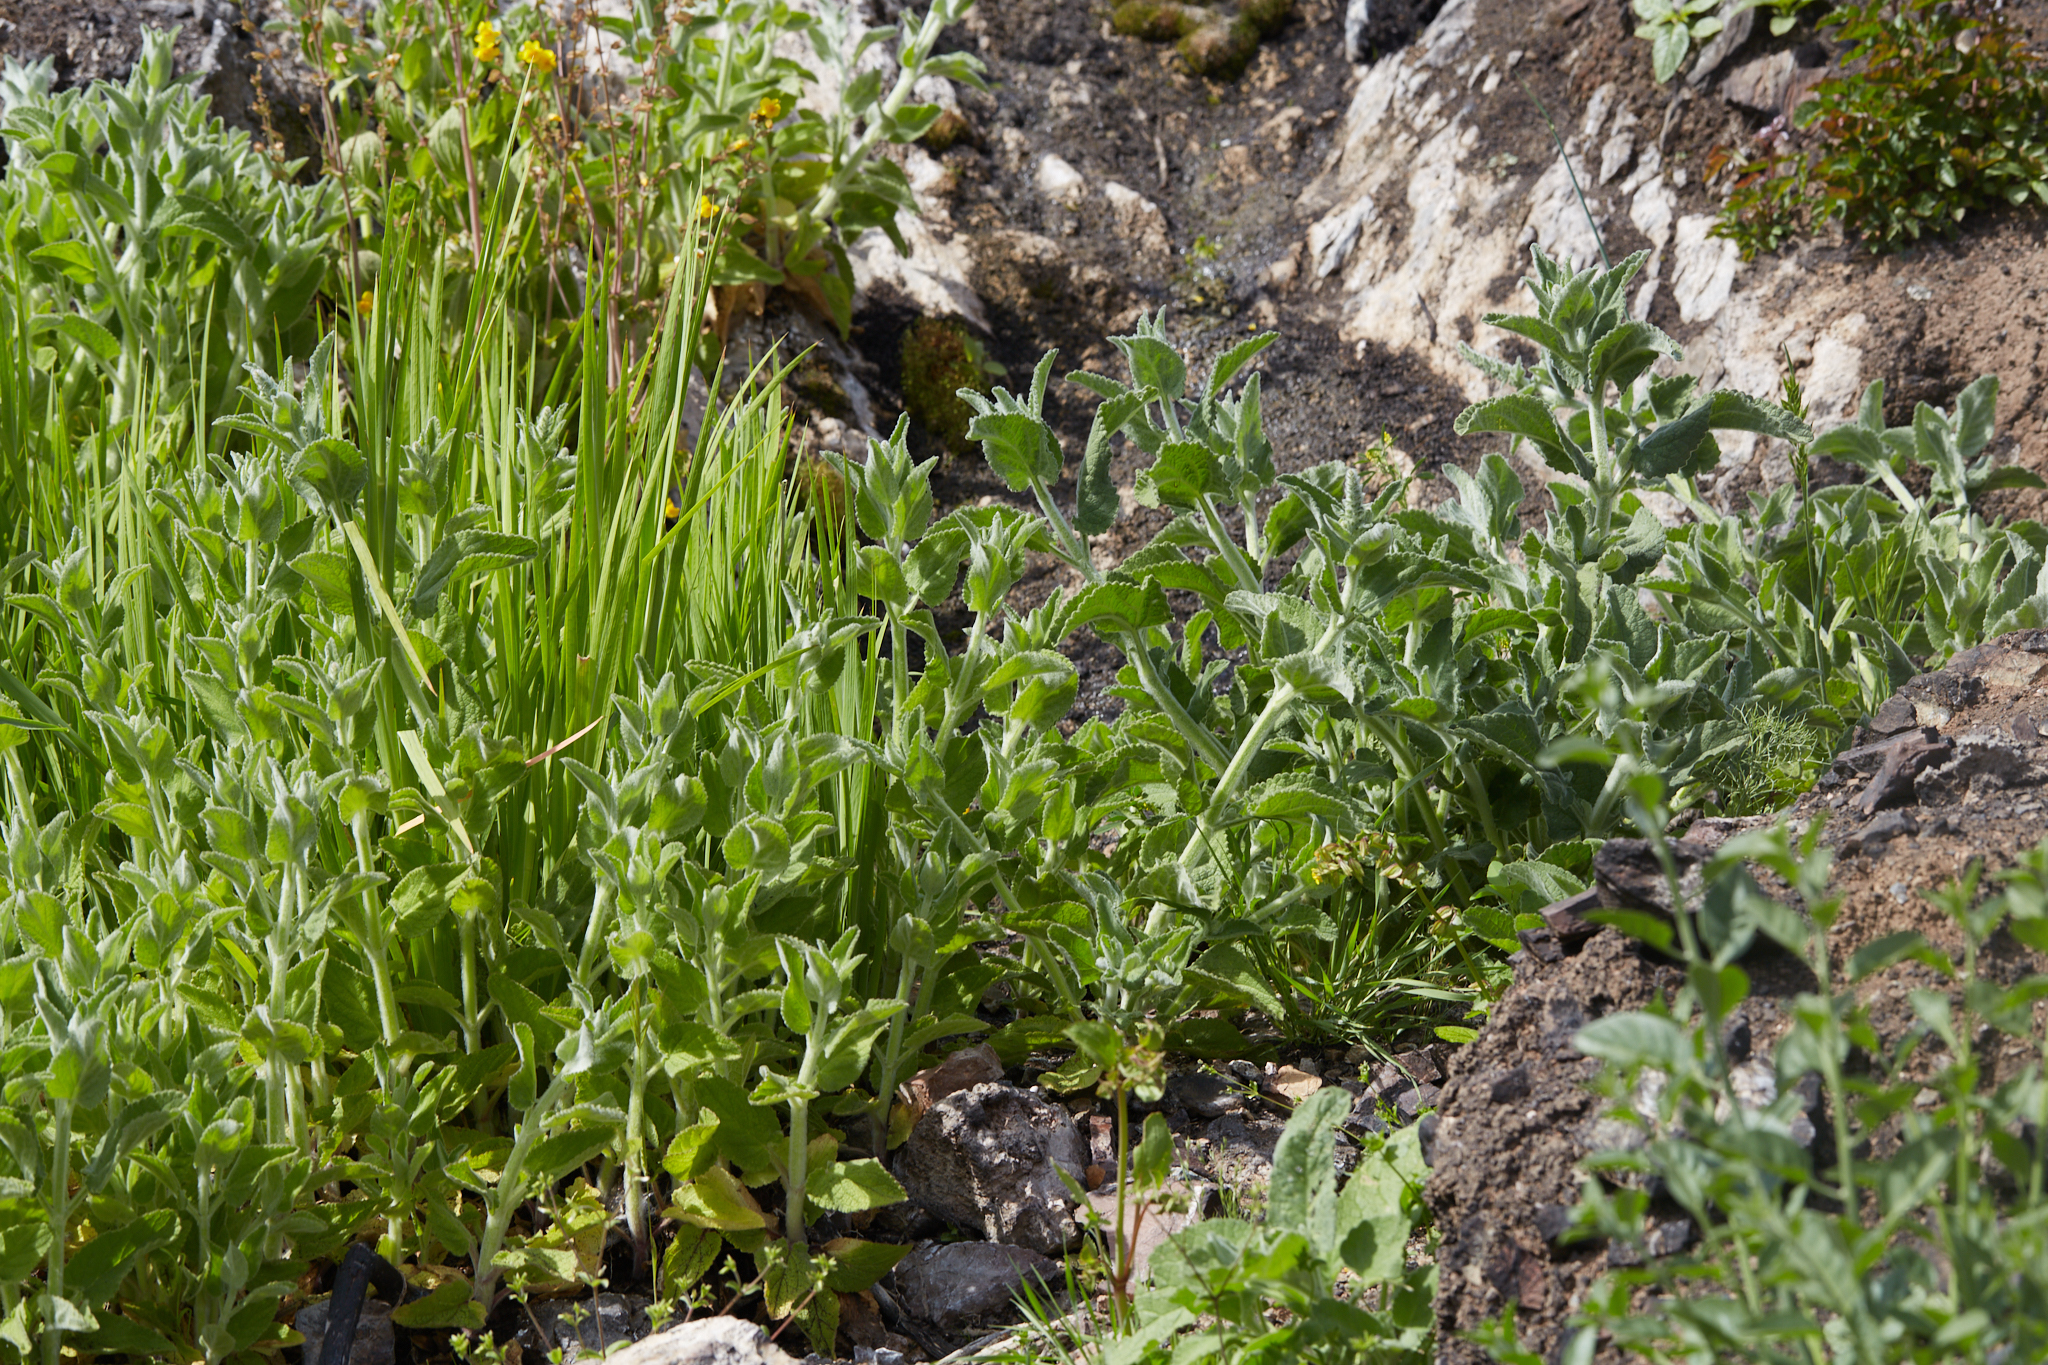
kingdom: Plantae
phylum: Tracheophyta
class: Magnoliopsida
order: Lamiales
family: Lamiaceae
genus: Stachys
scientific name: Stachys albens
